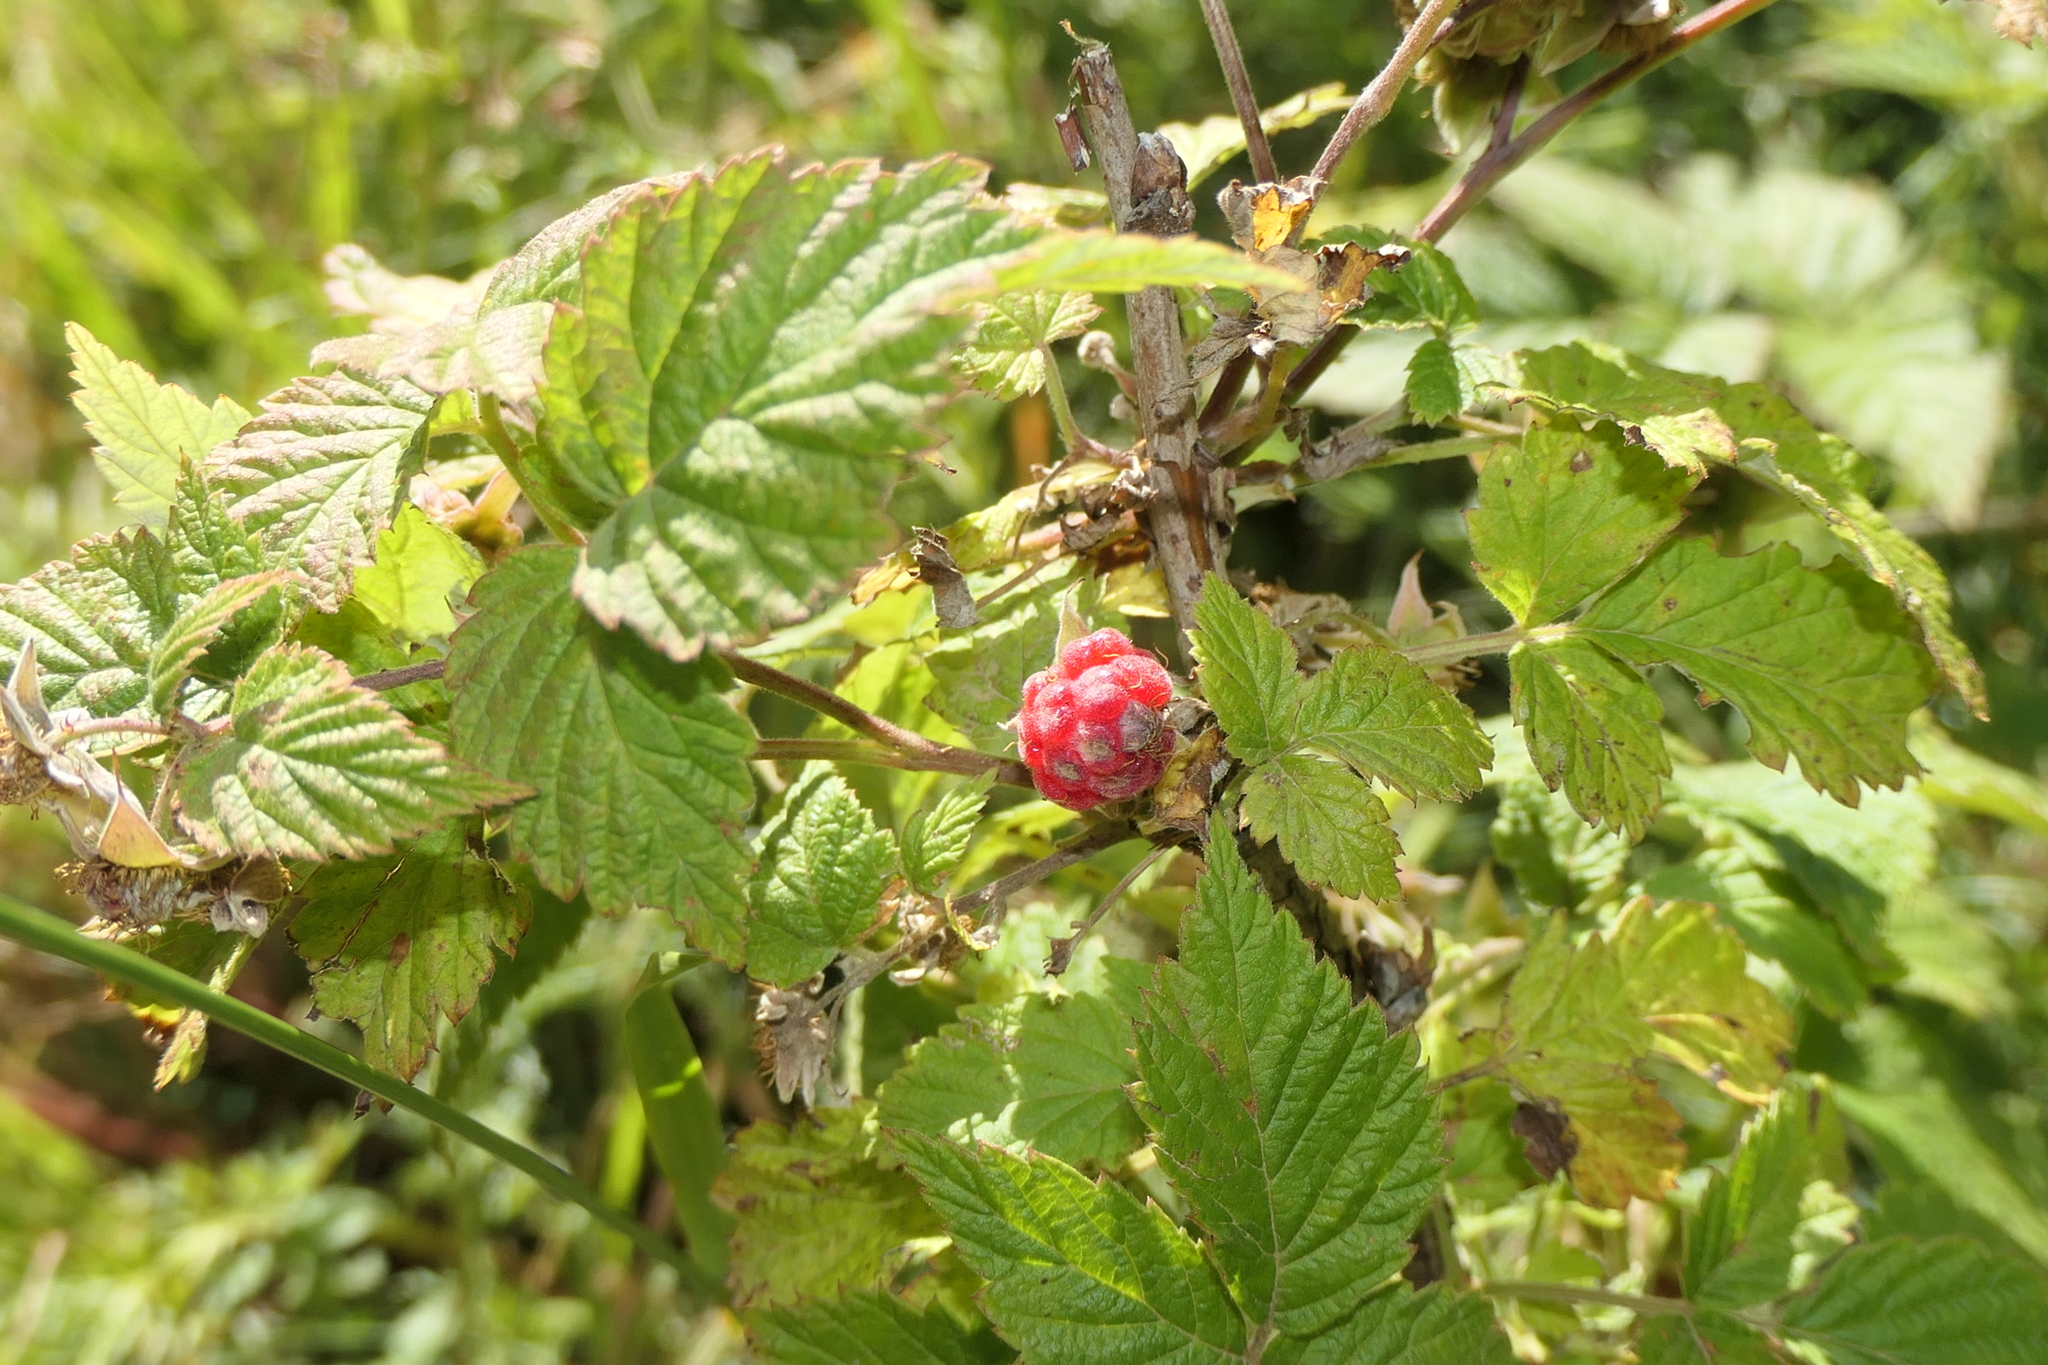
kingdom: Plantae
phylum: Tracheophyta
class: Magnoliopsida
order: Rosales
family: Rosaceae
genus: Rubus
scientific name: Rubus idaeus
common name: Raspberry
